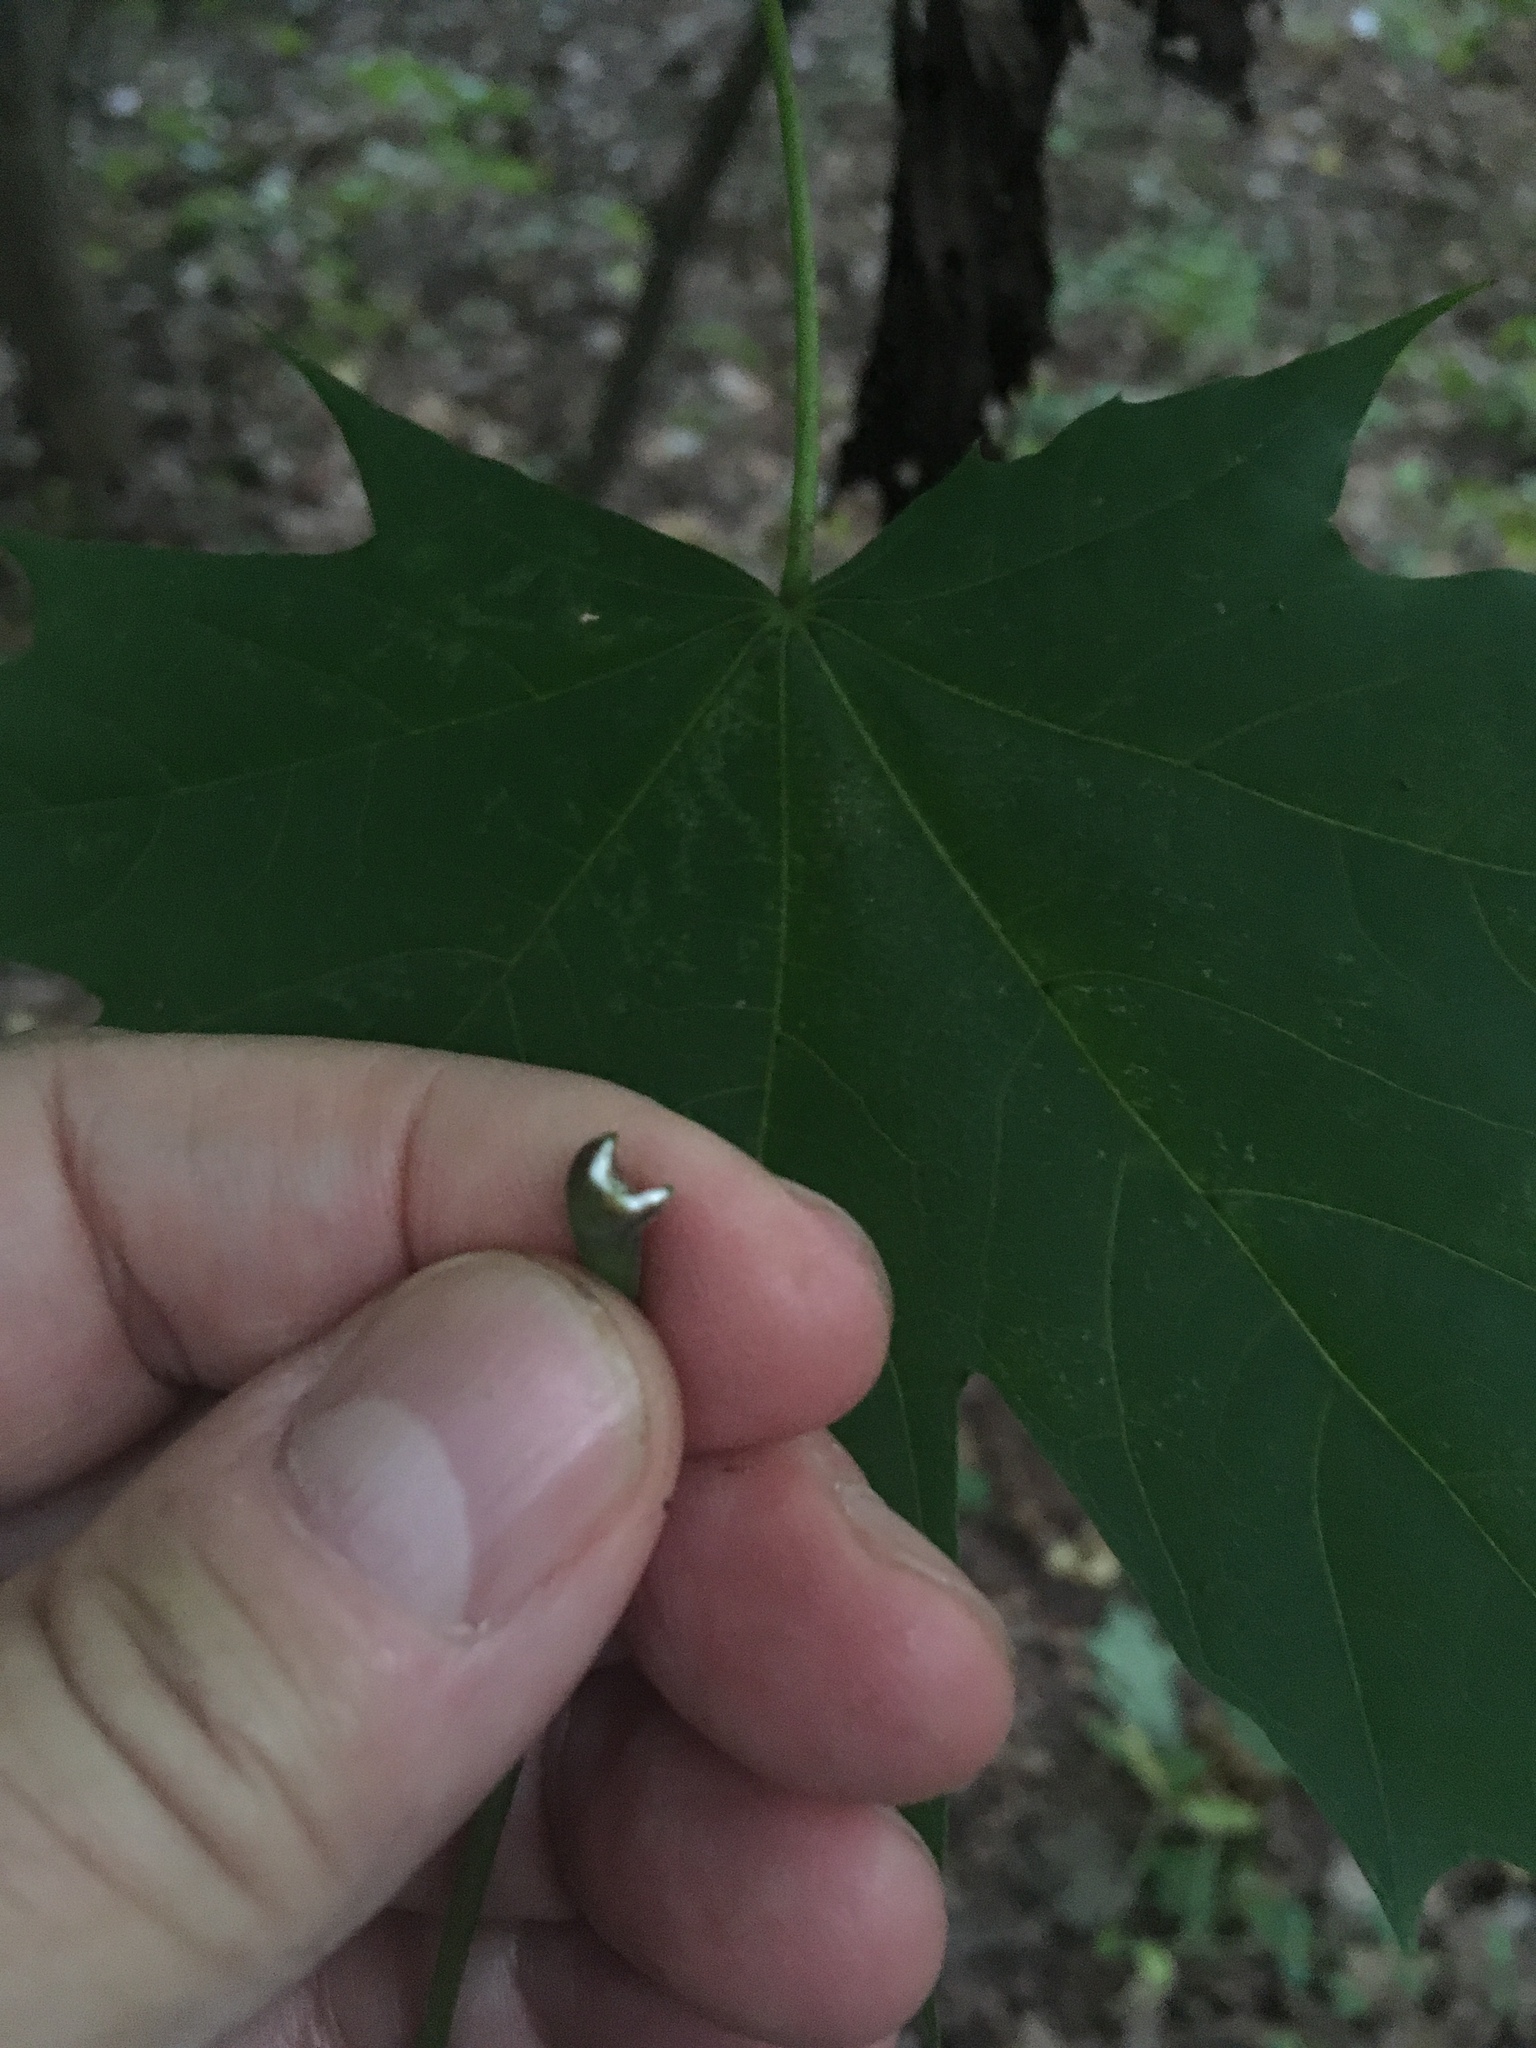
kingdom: Plantae
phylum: Tracheophyta
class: Magnoliopsida
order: Sapindales
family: Sapindaceae
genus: Acer
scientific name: Acer platanoides
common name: Norway maple
